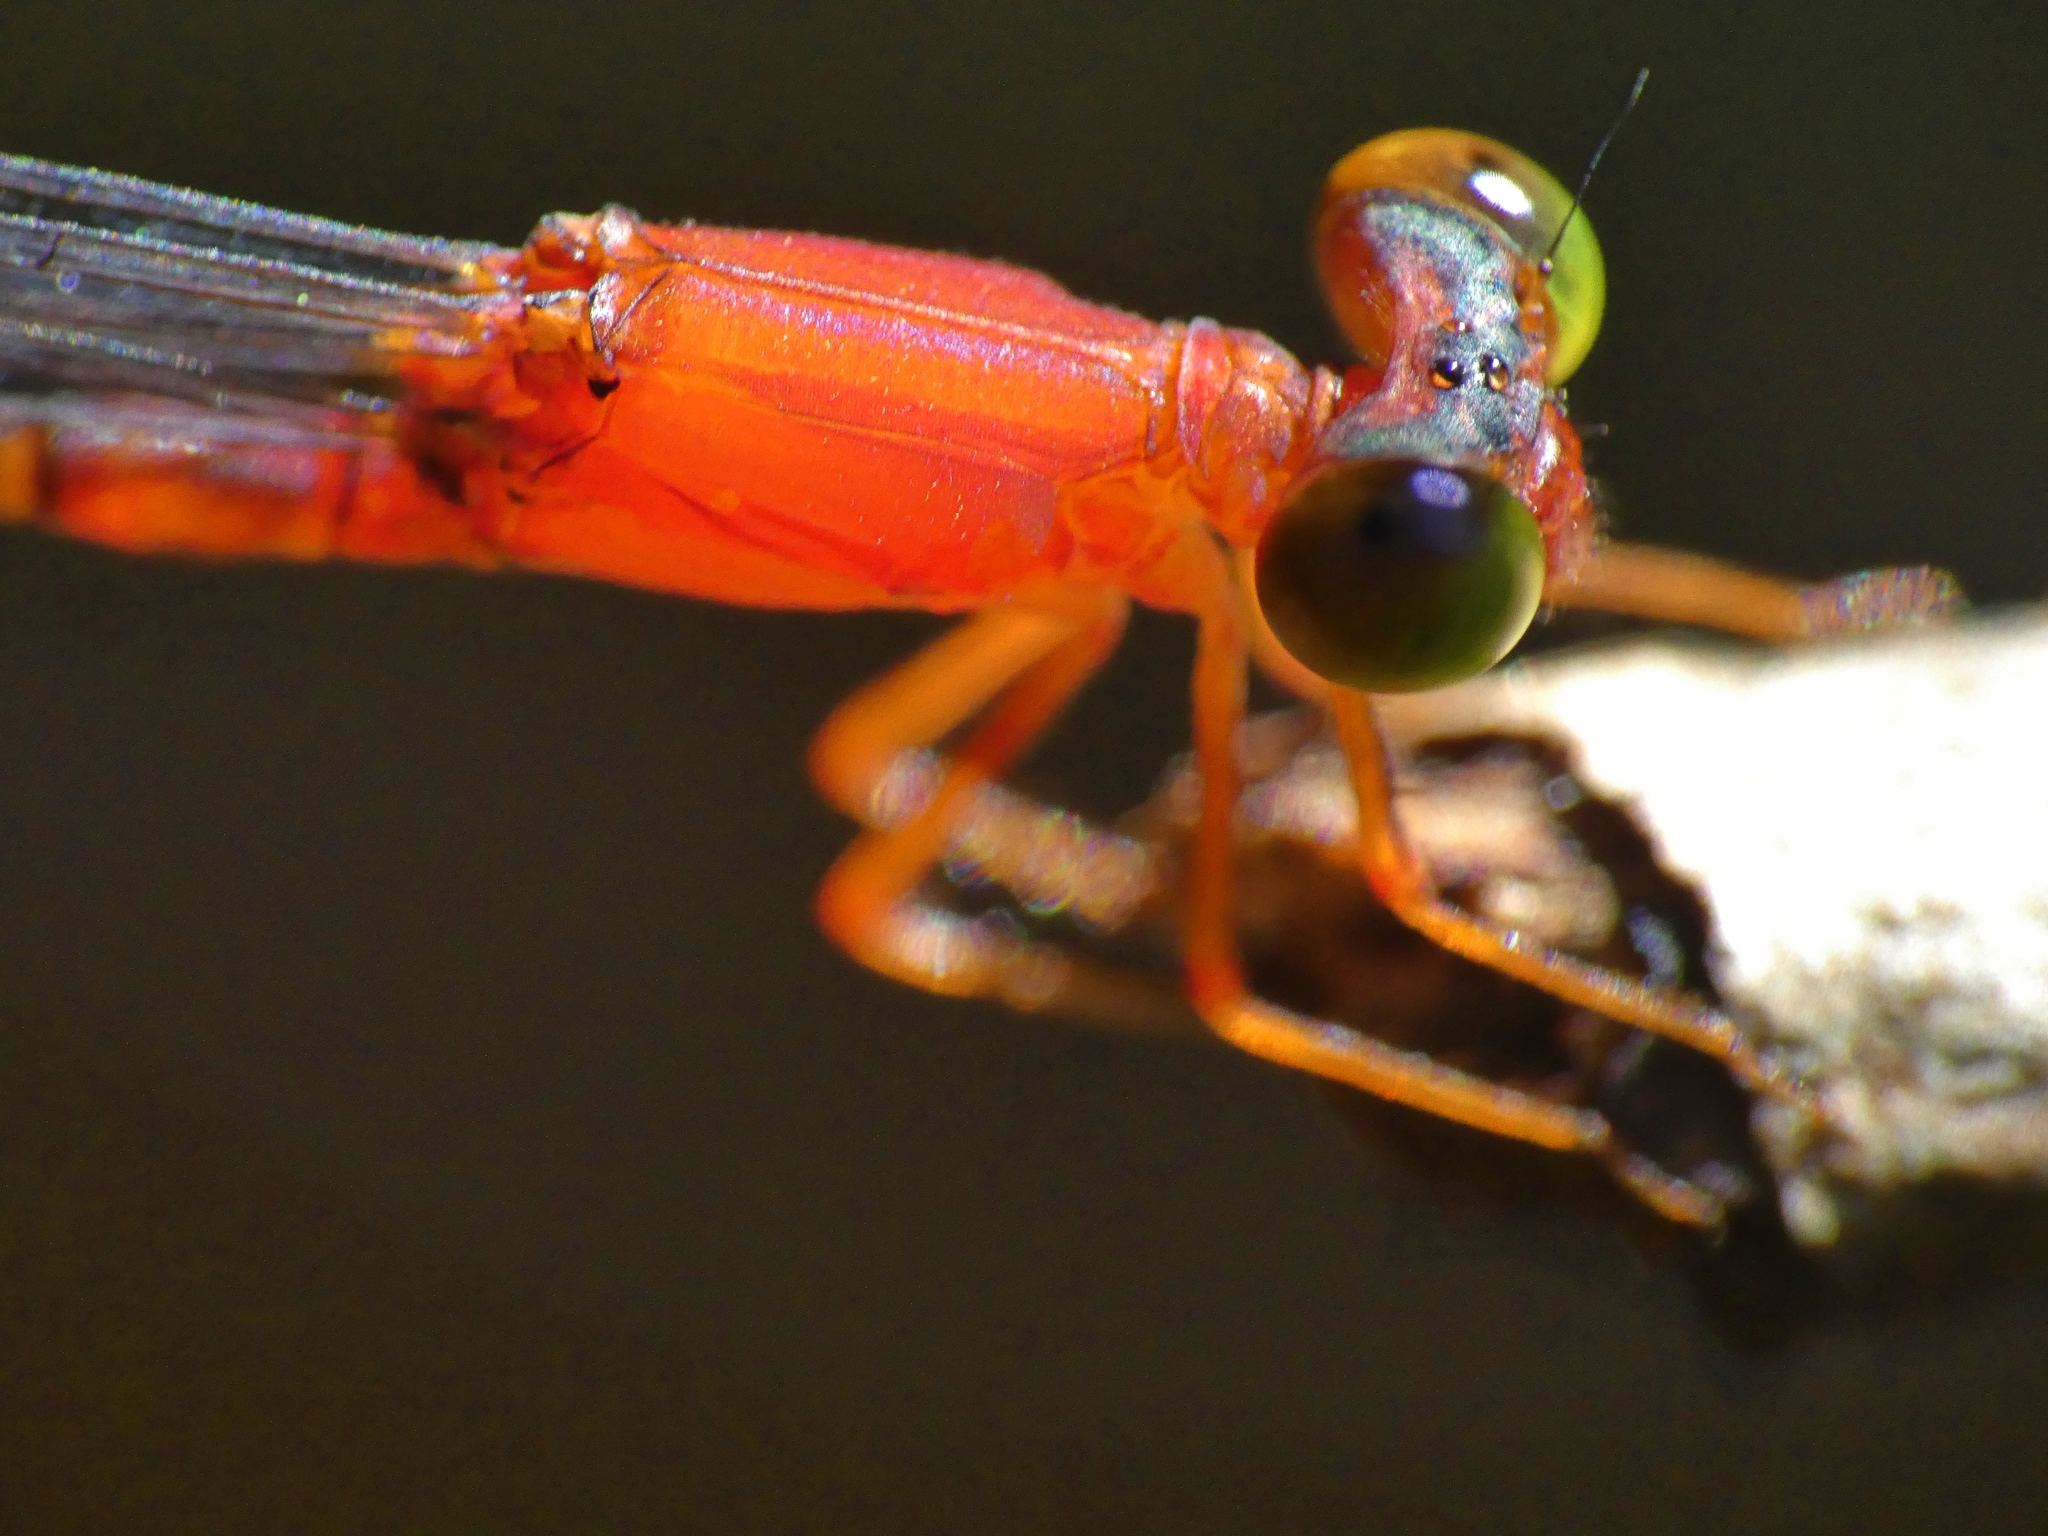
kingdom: Animalia
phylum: Arthropoda
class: Insecta
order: Odonata
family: Coenagrionidae
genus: Teinobasis
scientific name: Teinobasis rufithorax
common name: Red-breasted longtail
